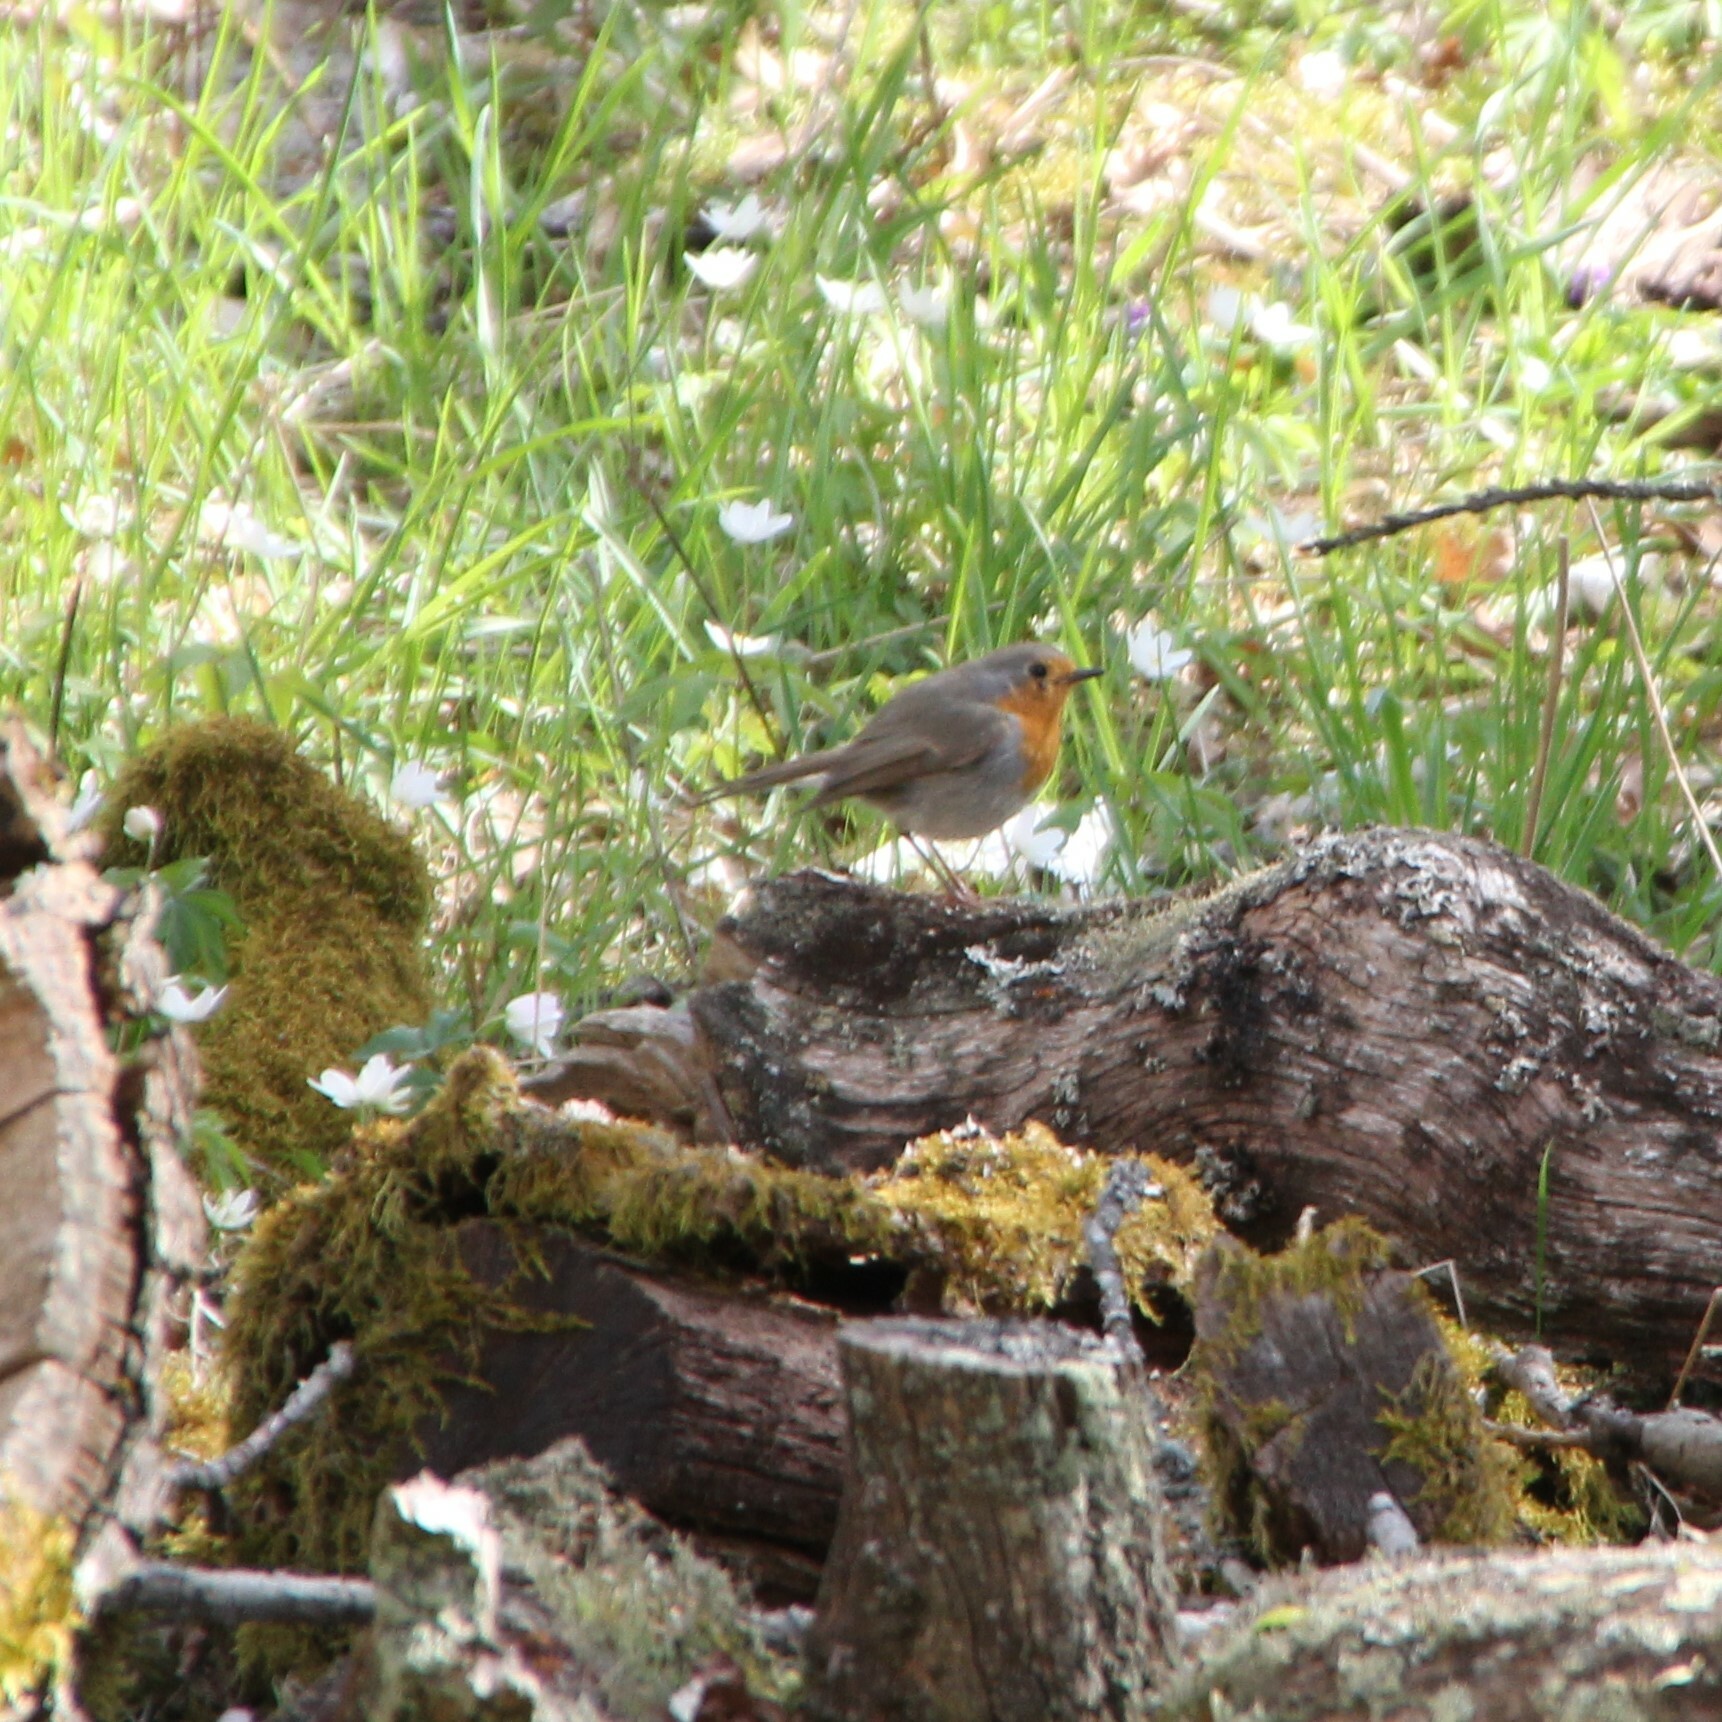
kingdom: Animalia
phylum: Chordata
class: Aves
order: Passeriformes
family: Muscicapidae
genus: Erithacus
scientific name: Erithacus rubecula
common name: European robin
